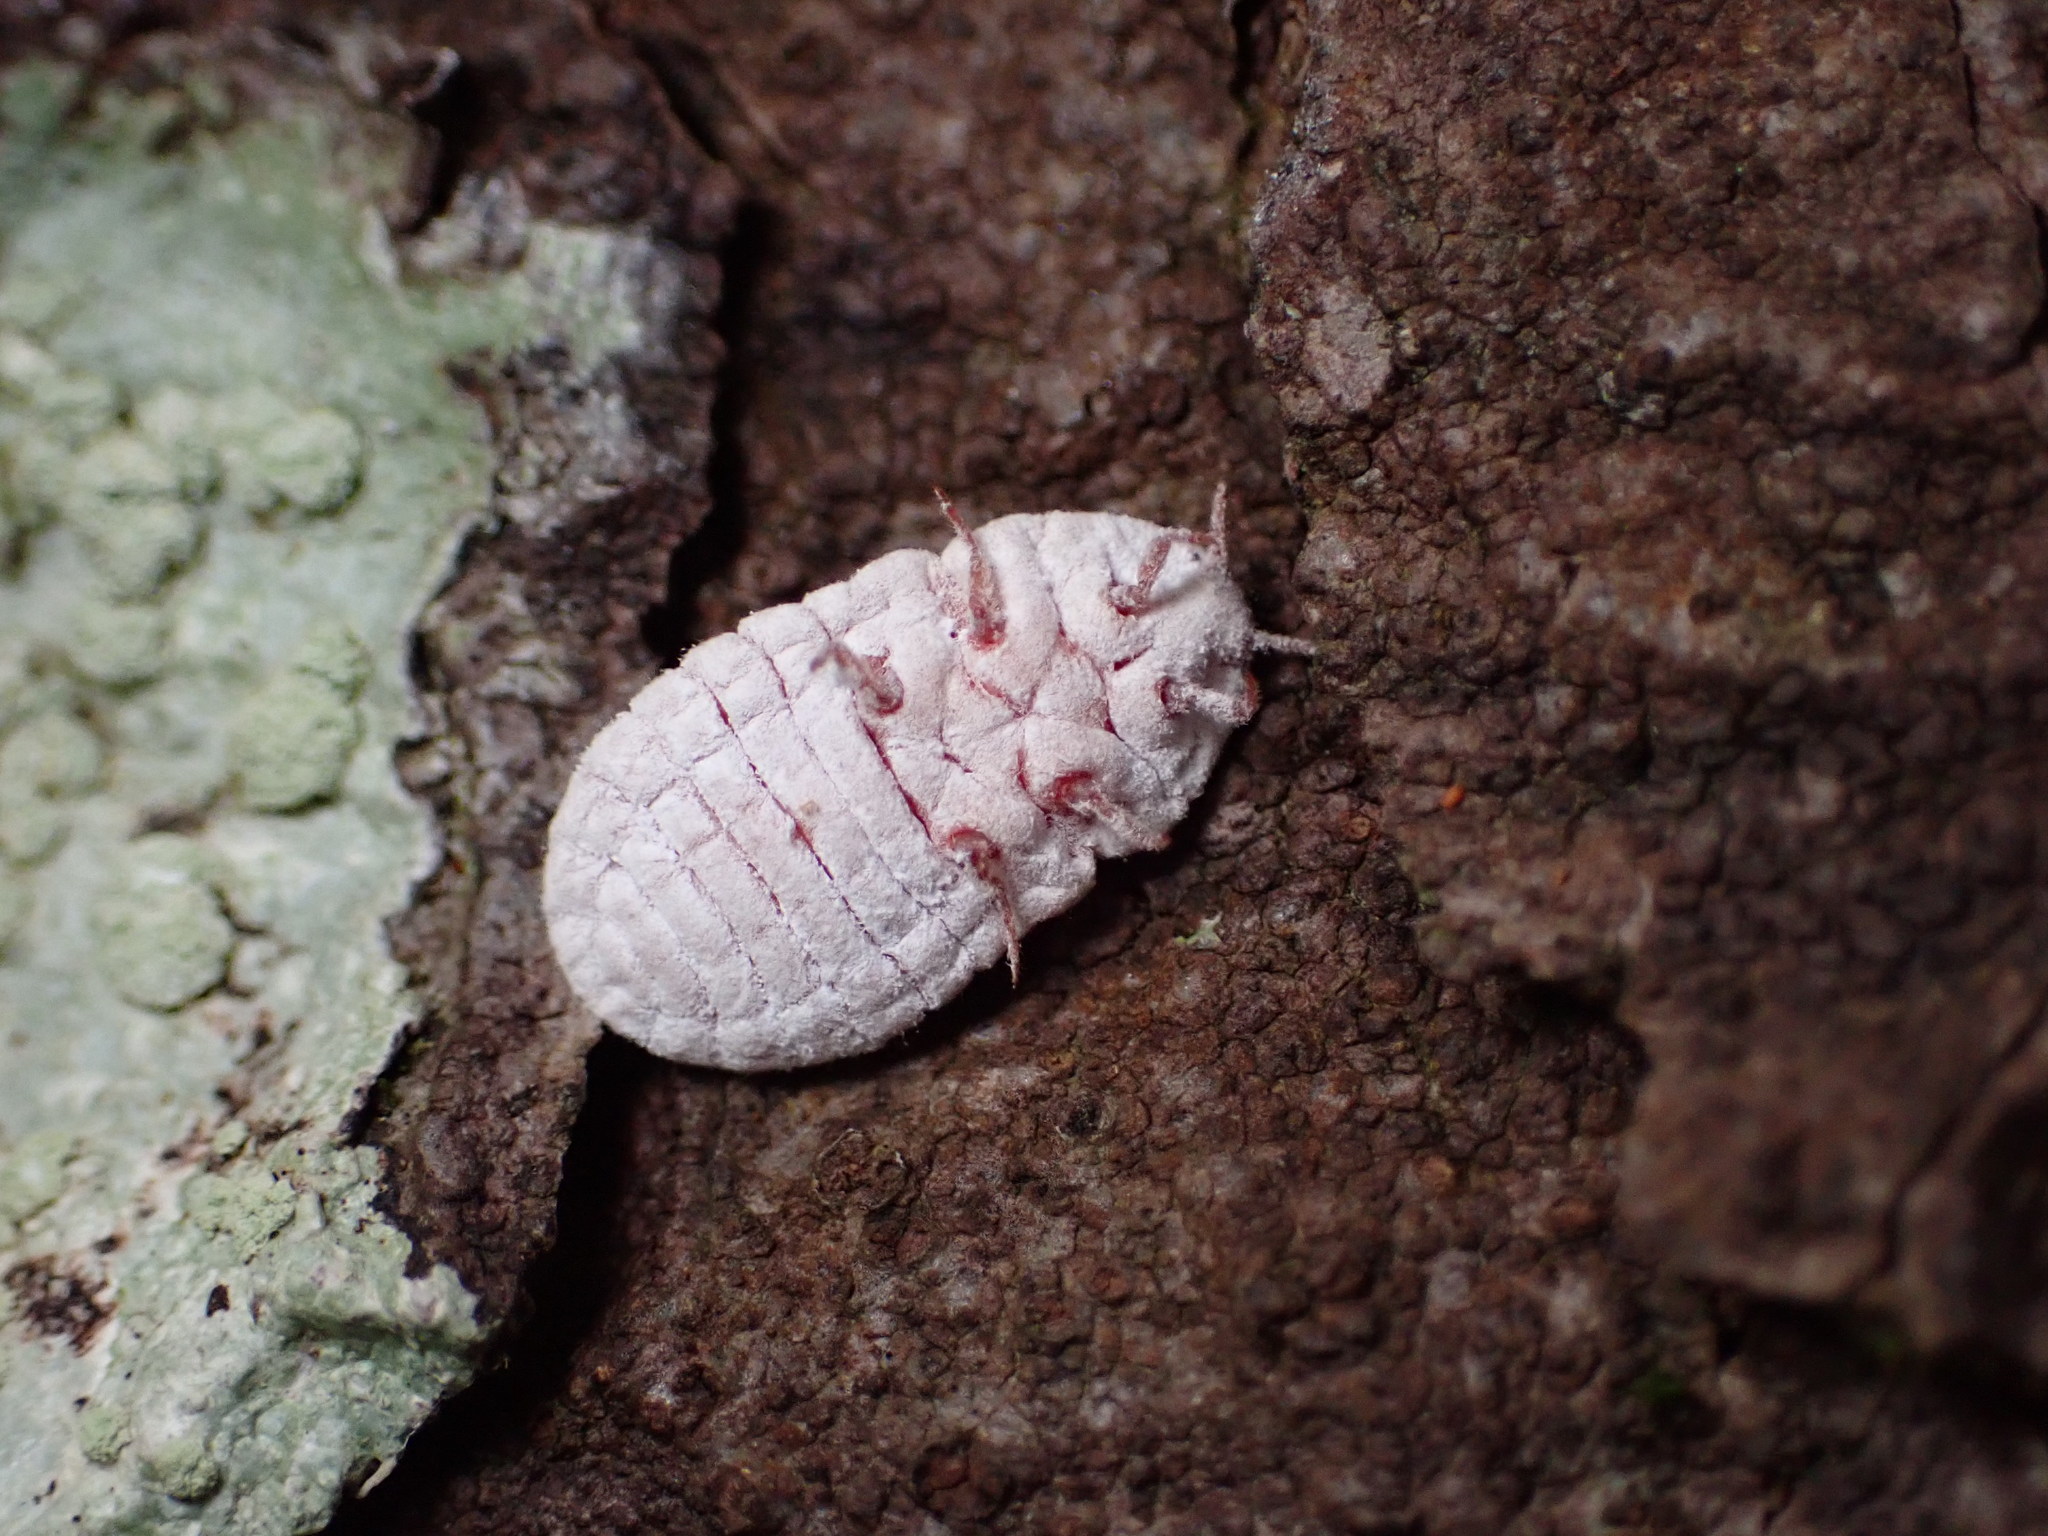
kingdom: Animalia
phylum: Arthropoda
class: Insecta
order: Hemiptera
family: Margarodidae
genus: Coelostomidia
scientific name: Coelostomidia zealandica
